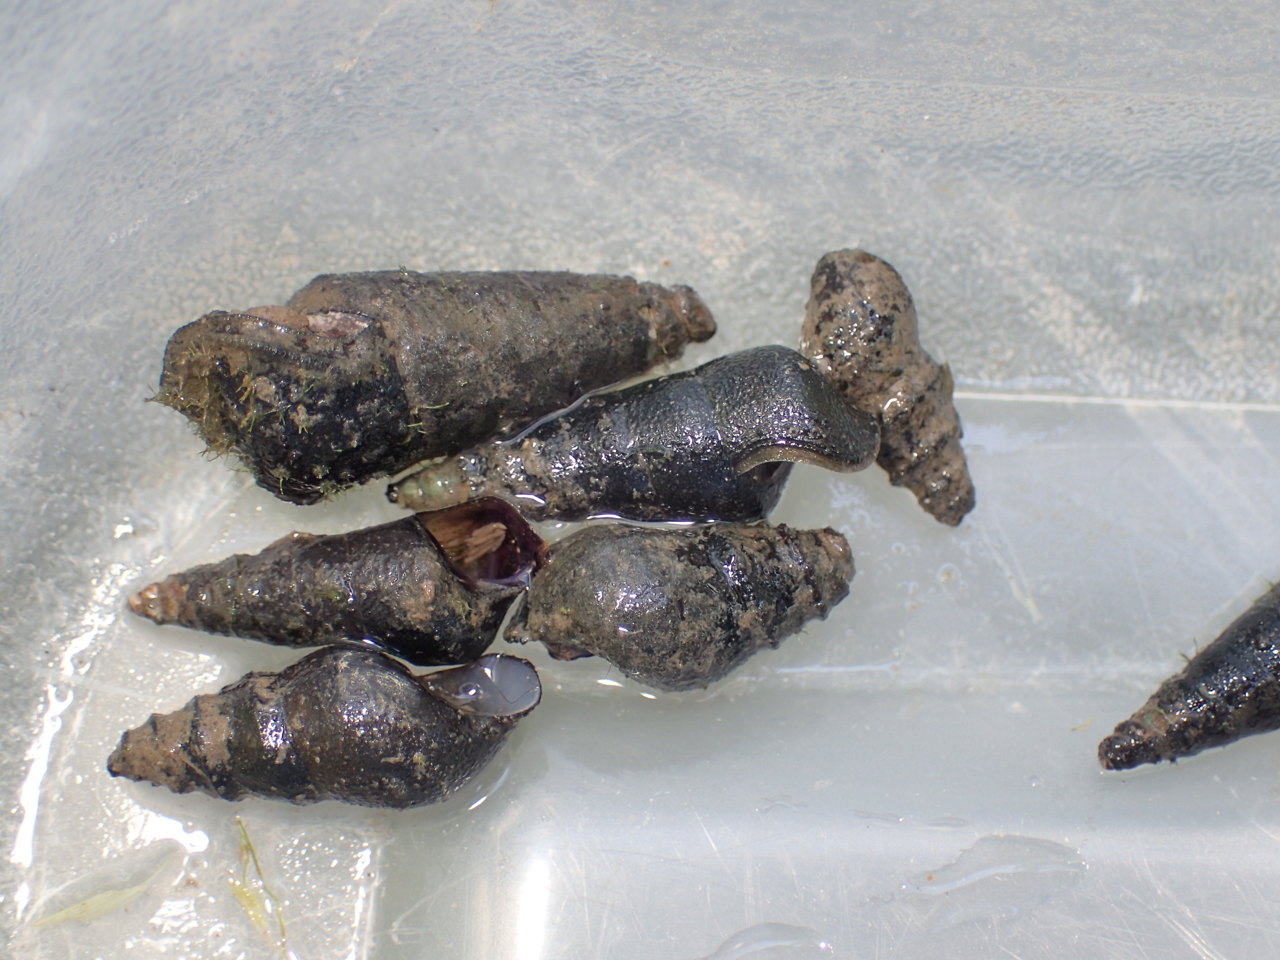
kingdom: Animalia
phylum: Mollusca
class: Gastropoda
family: Pleuroceridae
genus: Elimia
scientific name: Elimia carinifera
